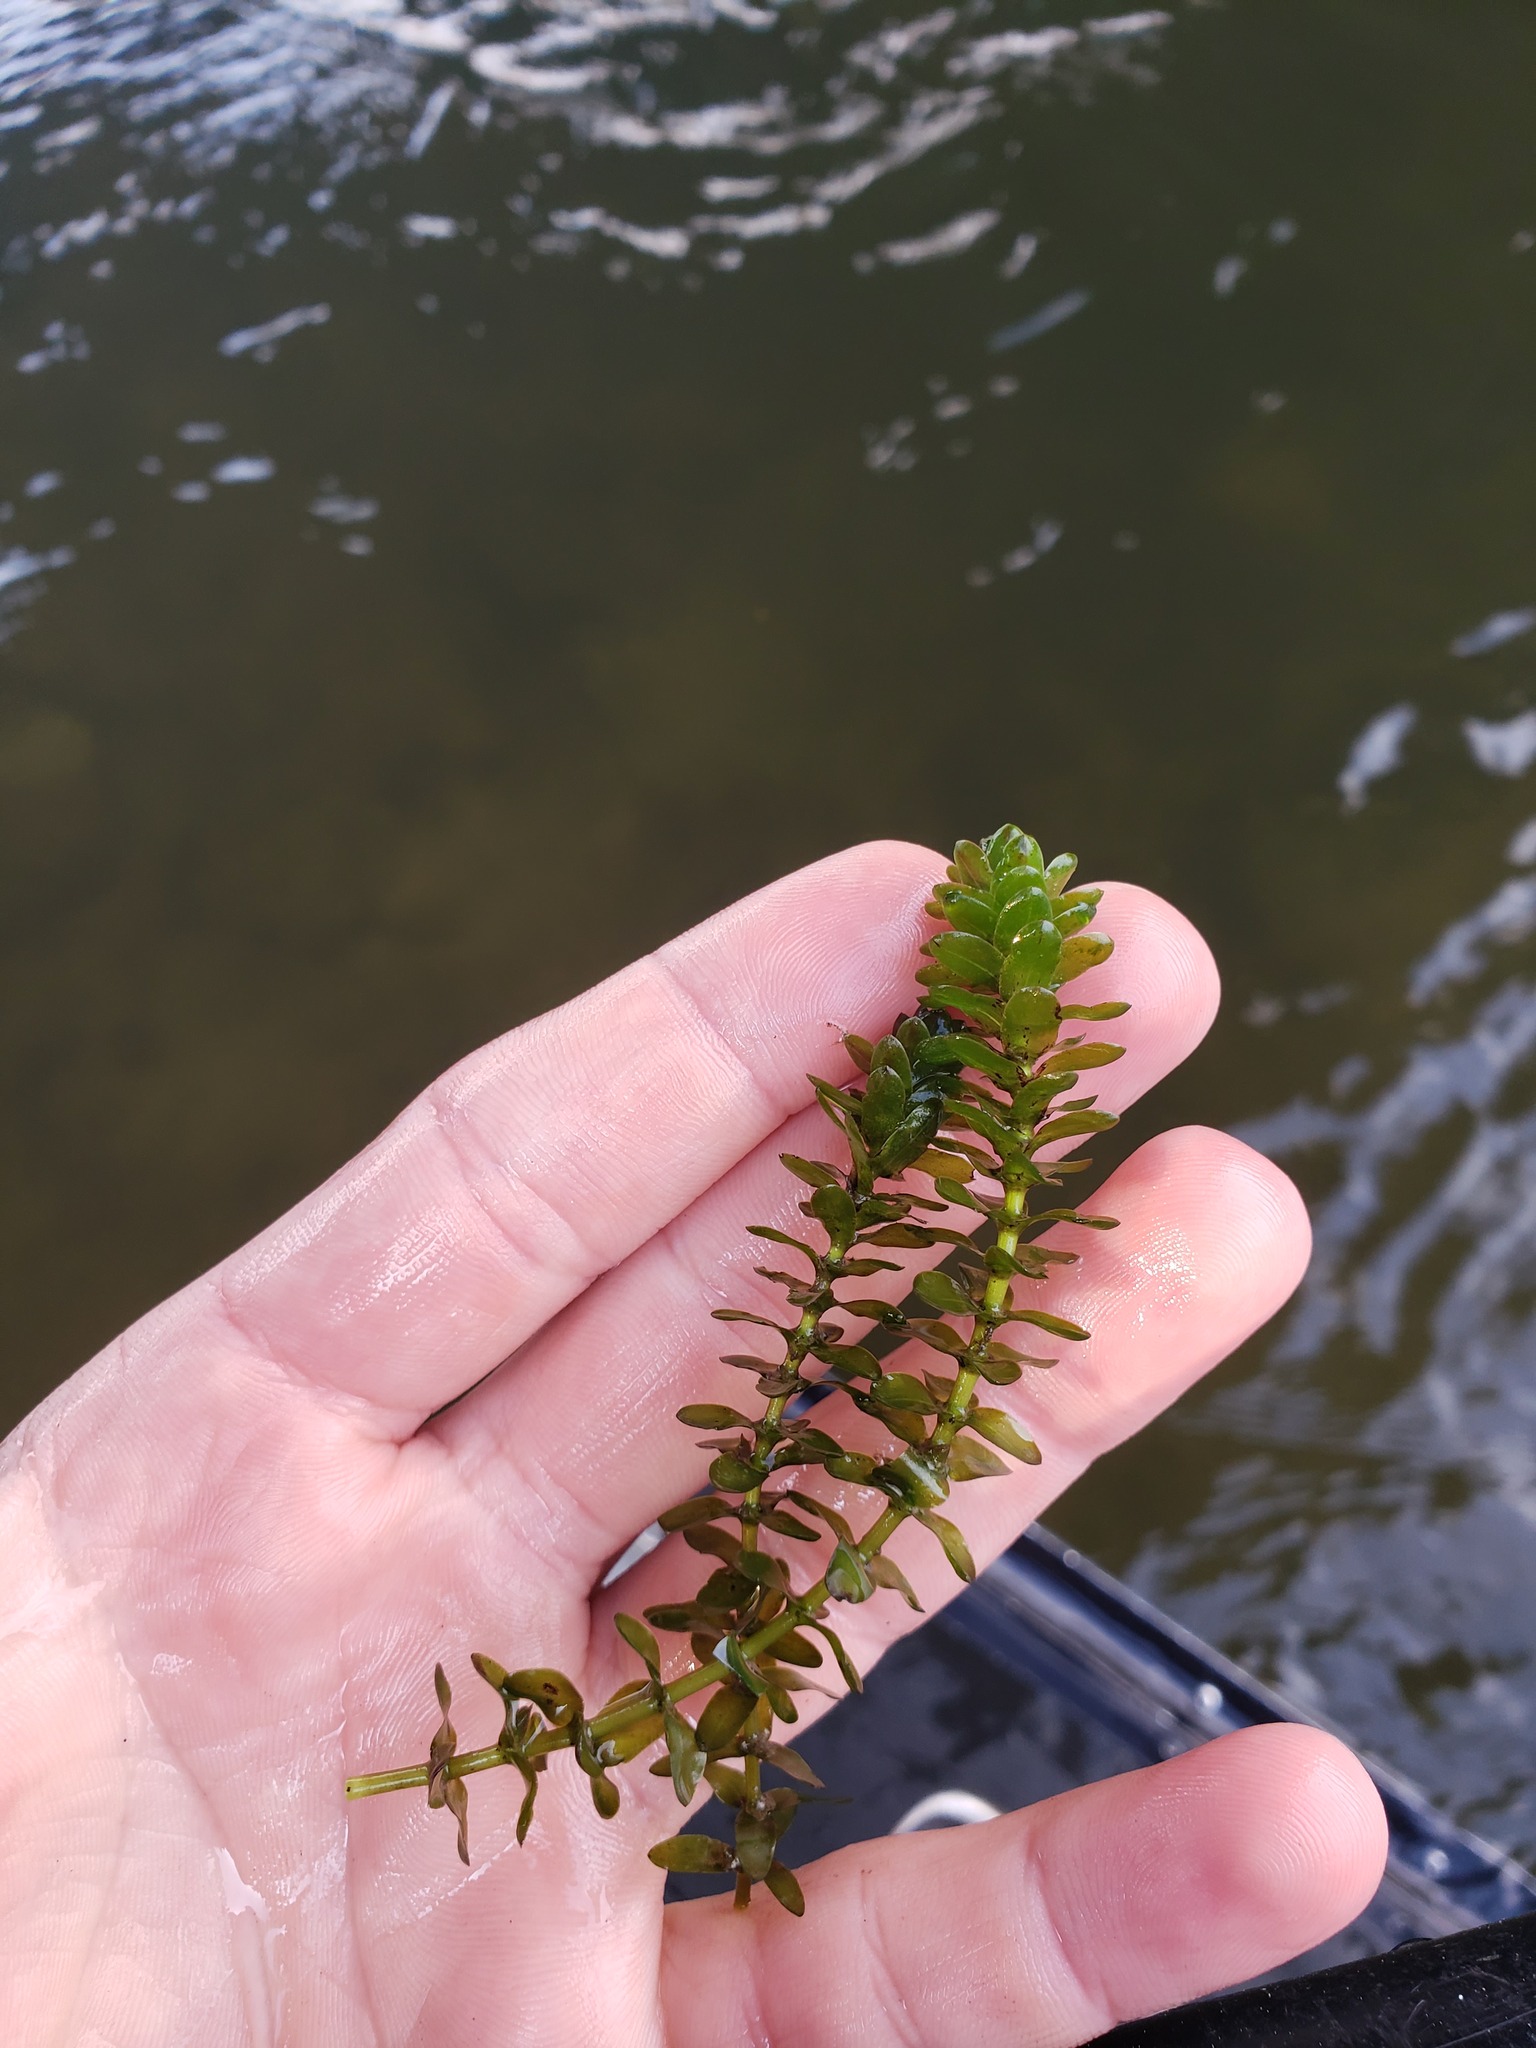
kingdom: Plantae
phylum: Tracheophyta
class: Liliopsida
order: Alismatales
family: Hydrocharitaceae
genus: Elodea
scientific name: Elodea canadensis
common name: Canadian waterweed
